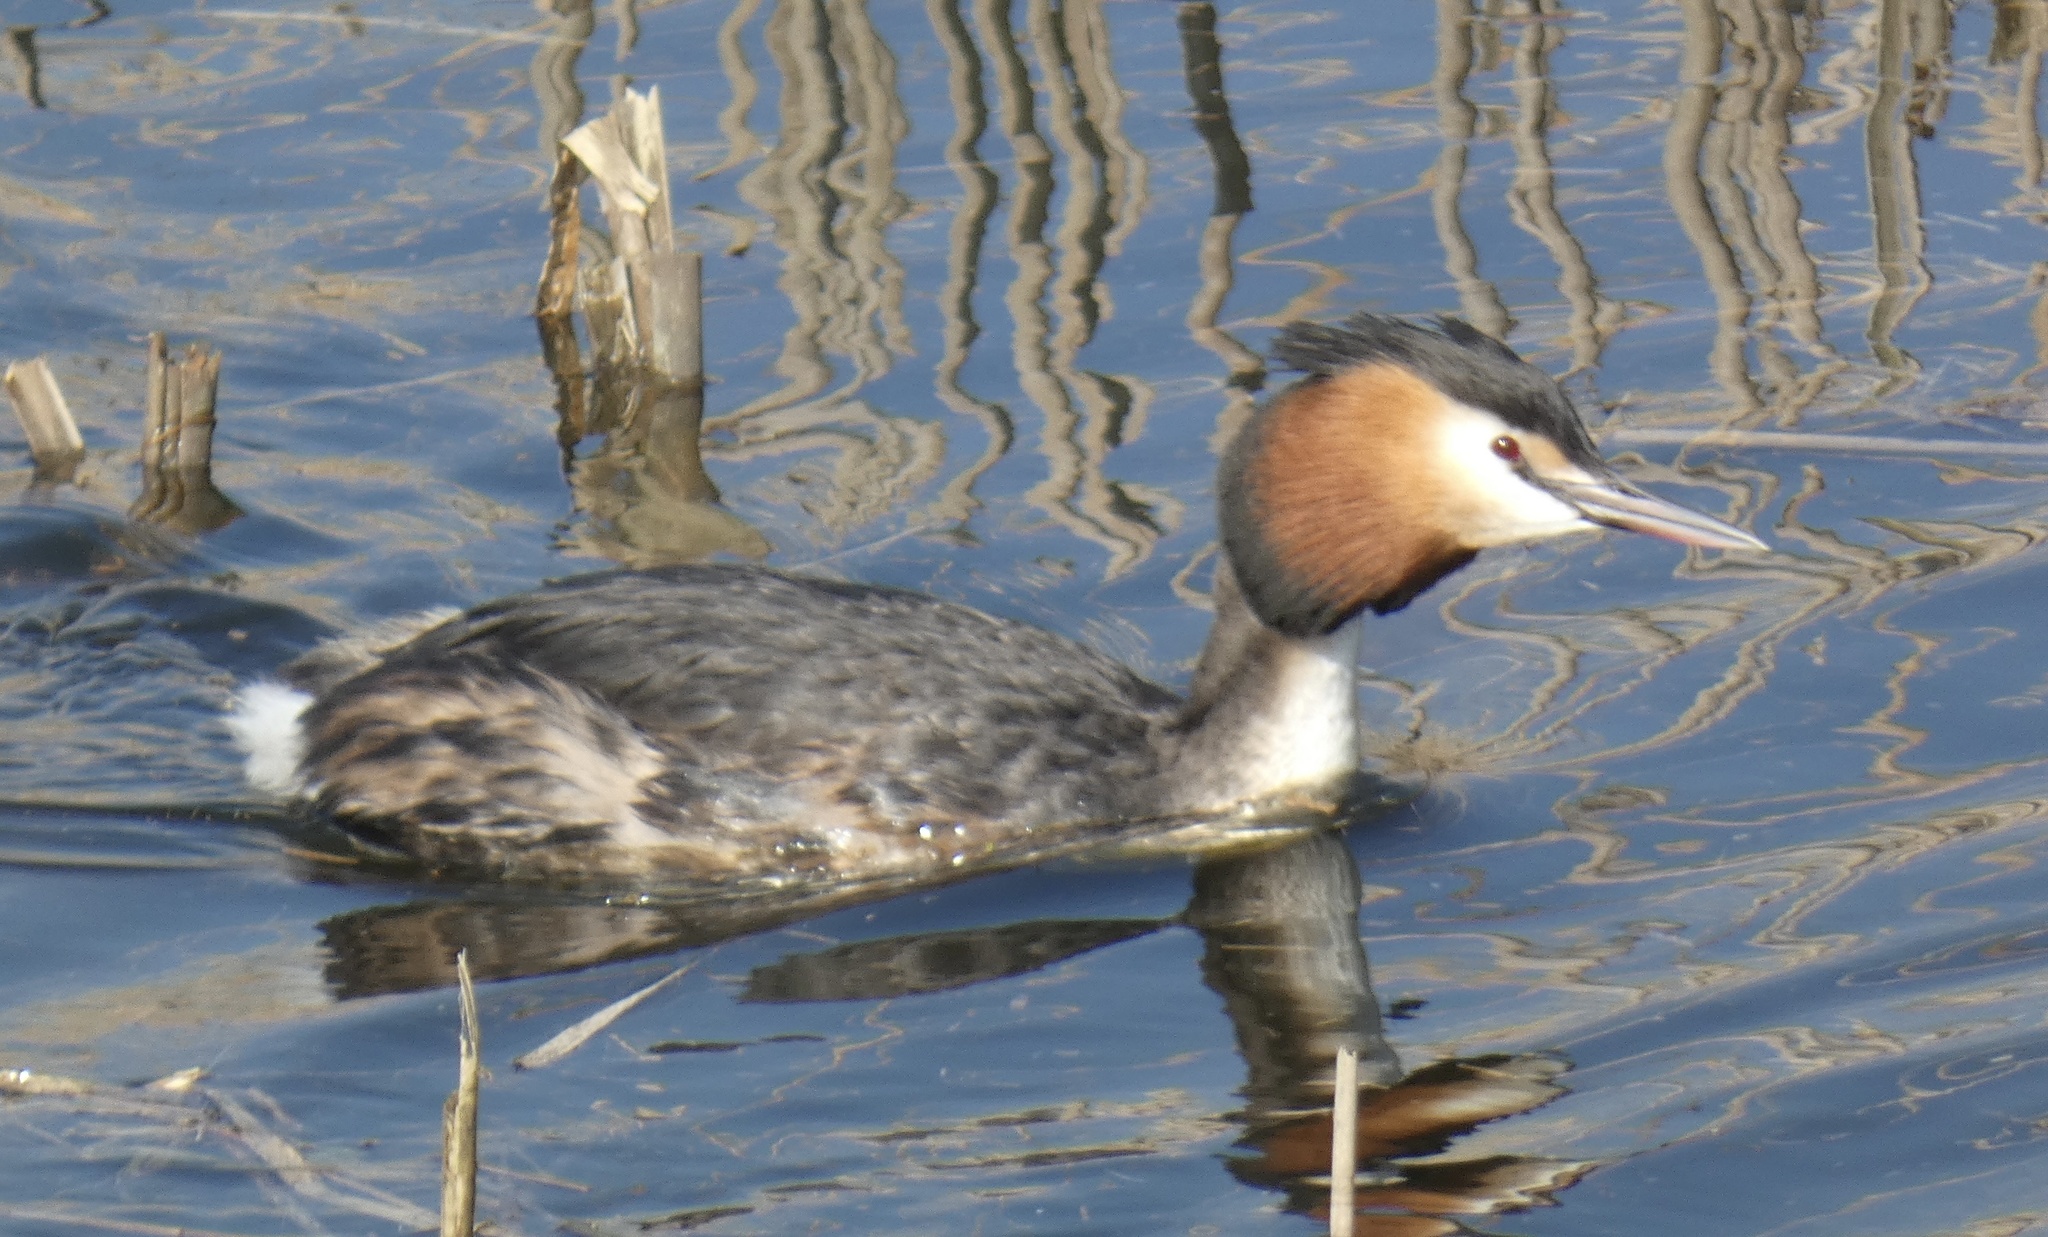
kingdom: Animalia
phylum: Chordata
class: Aves
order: Podicipediformes
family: Podicipedidae
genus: Podiceps
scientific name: Podiceps cristatus
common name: Great crested grebe
